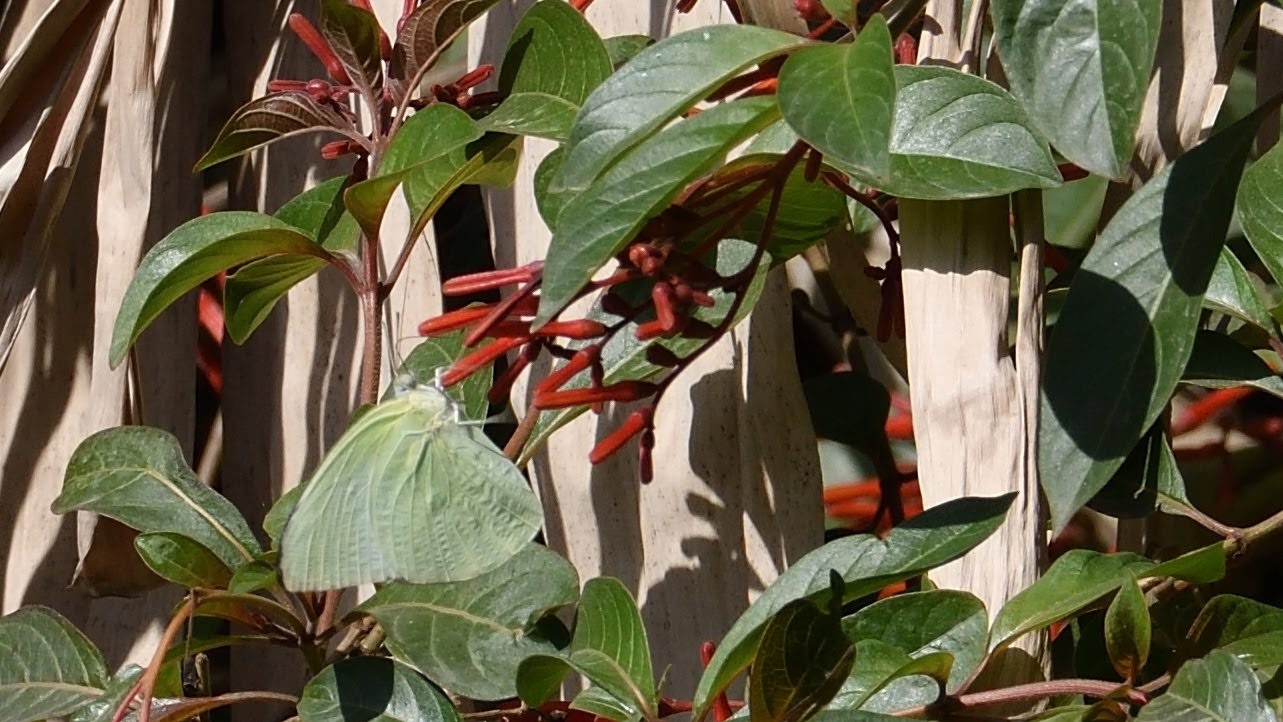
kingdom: Animalia
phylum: Arthropoda
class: Insecta
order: Lepidoptera
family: Pieridae
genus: Catopsilia
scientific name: Catopsilia pomona
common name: Common emigrant
